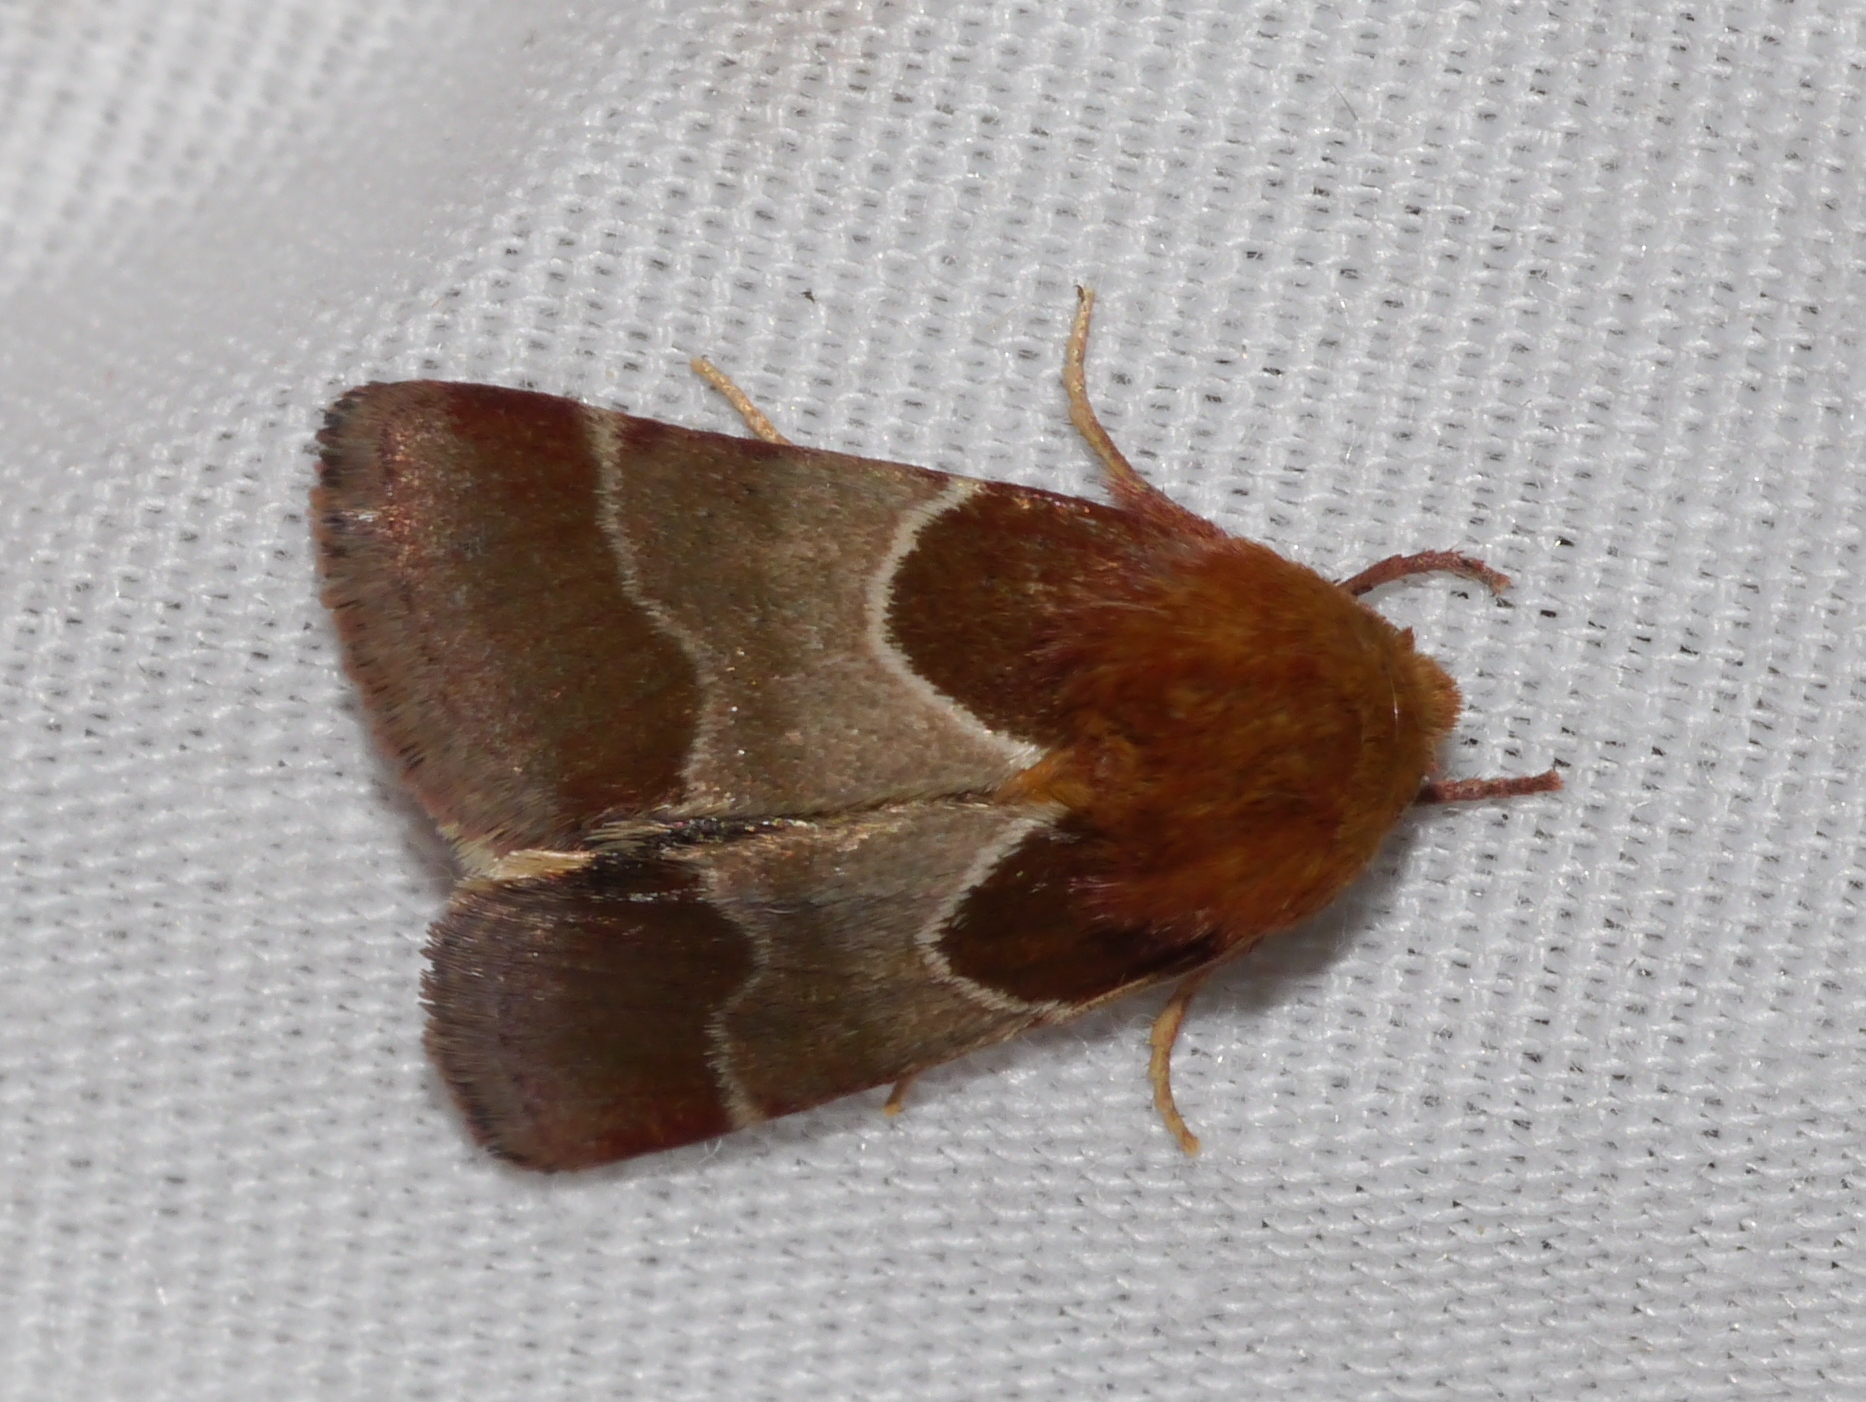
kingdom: Animalia
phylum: Arthropoda
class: Insecta
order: Lepidoptera
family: Noctuidae
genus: Schinia
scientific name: Schinia arcigera
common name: Arcigera flower moth
